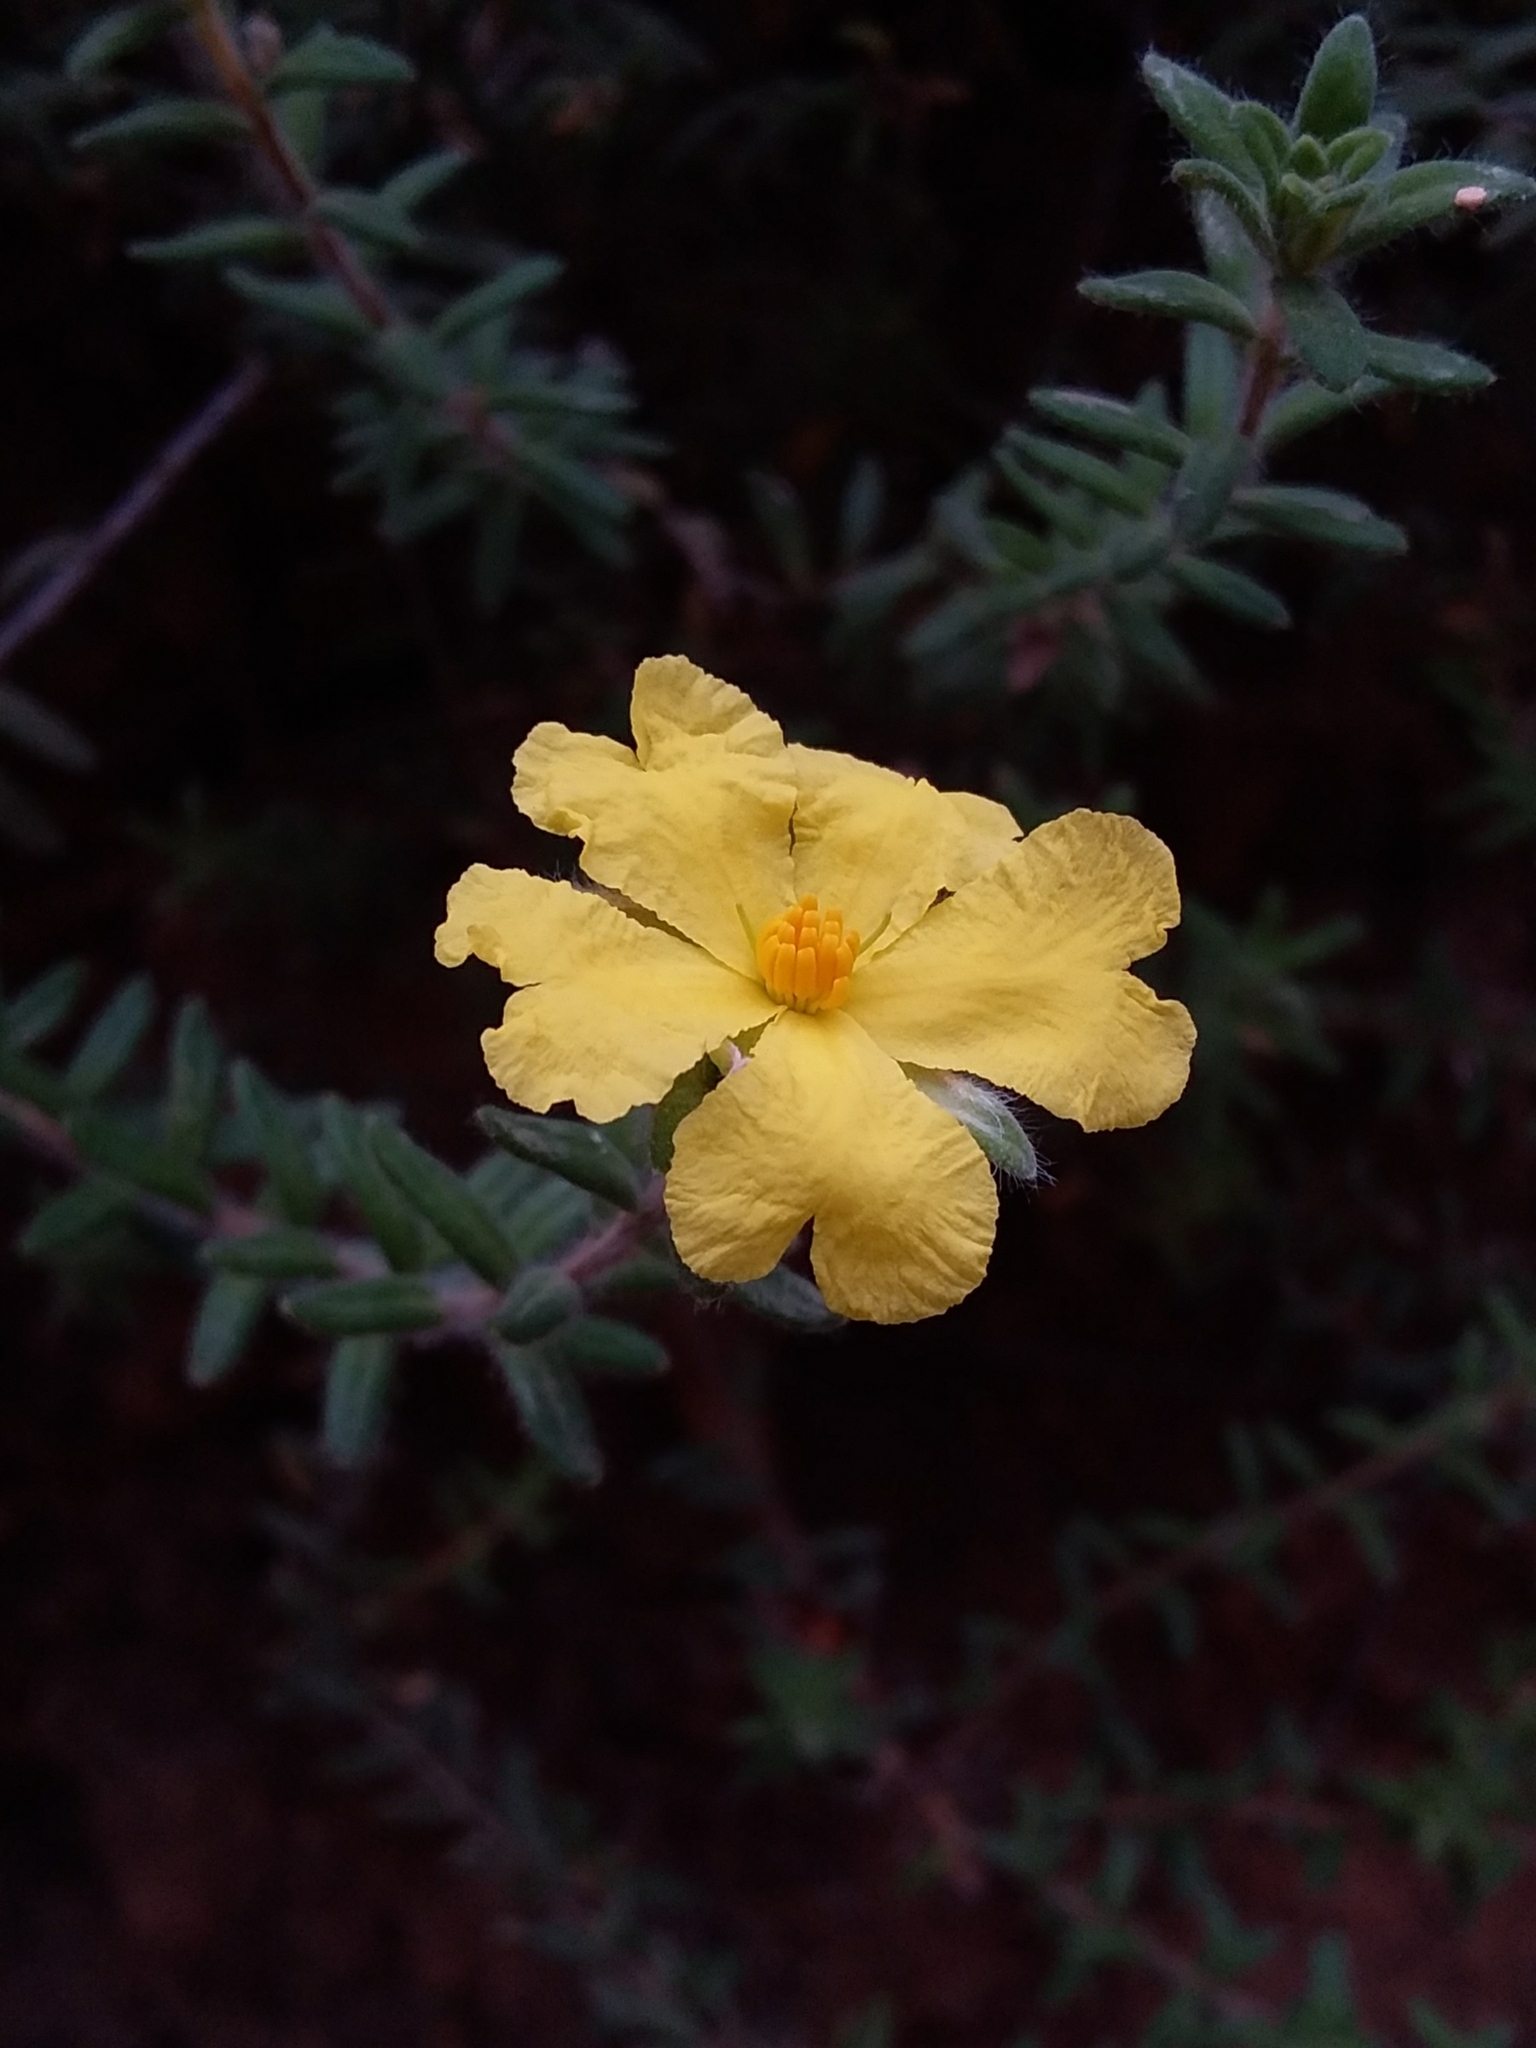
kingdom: Plantae
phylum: Tracheophyta
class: Magnoliopsida
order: Dilleniales
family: Dilleniaceae
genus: Hibbertia
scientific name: Hibbertia crinita
